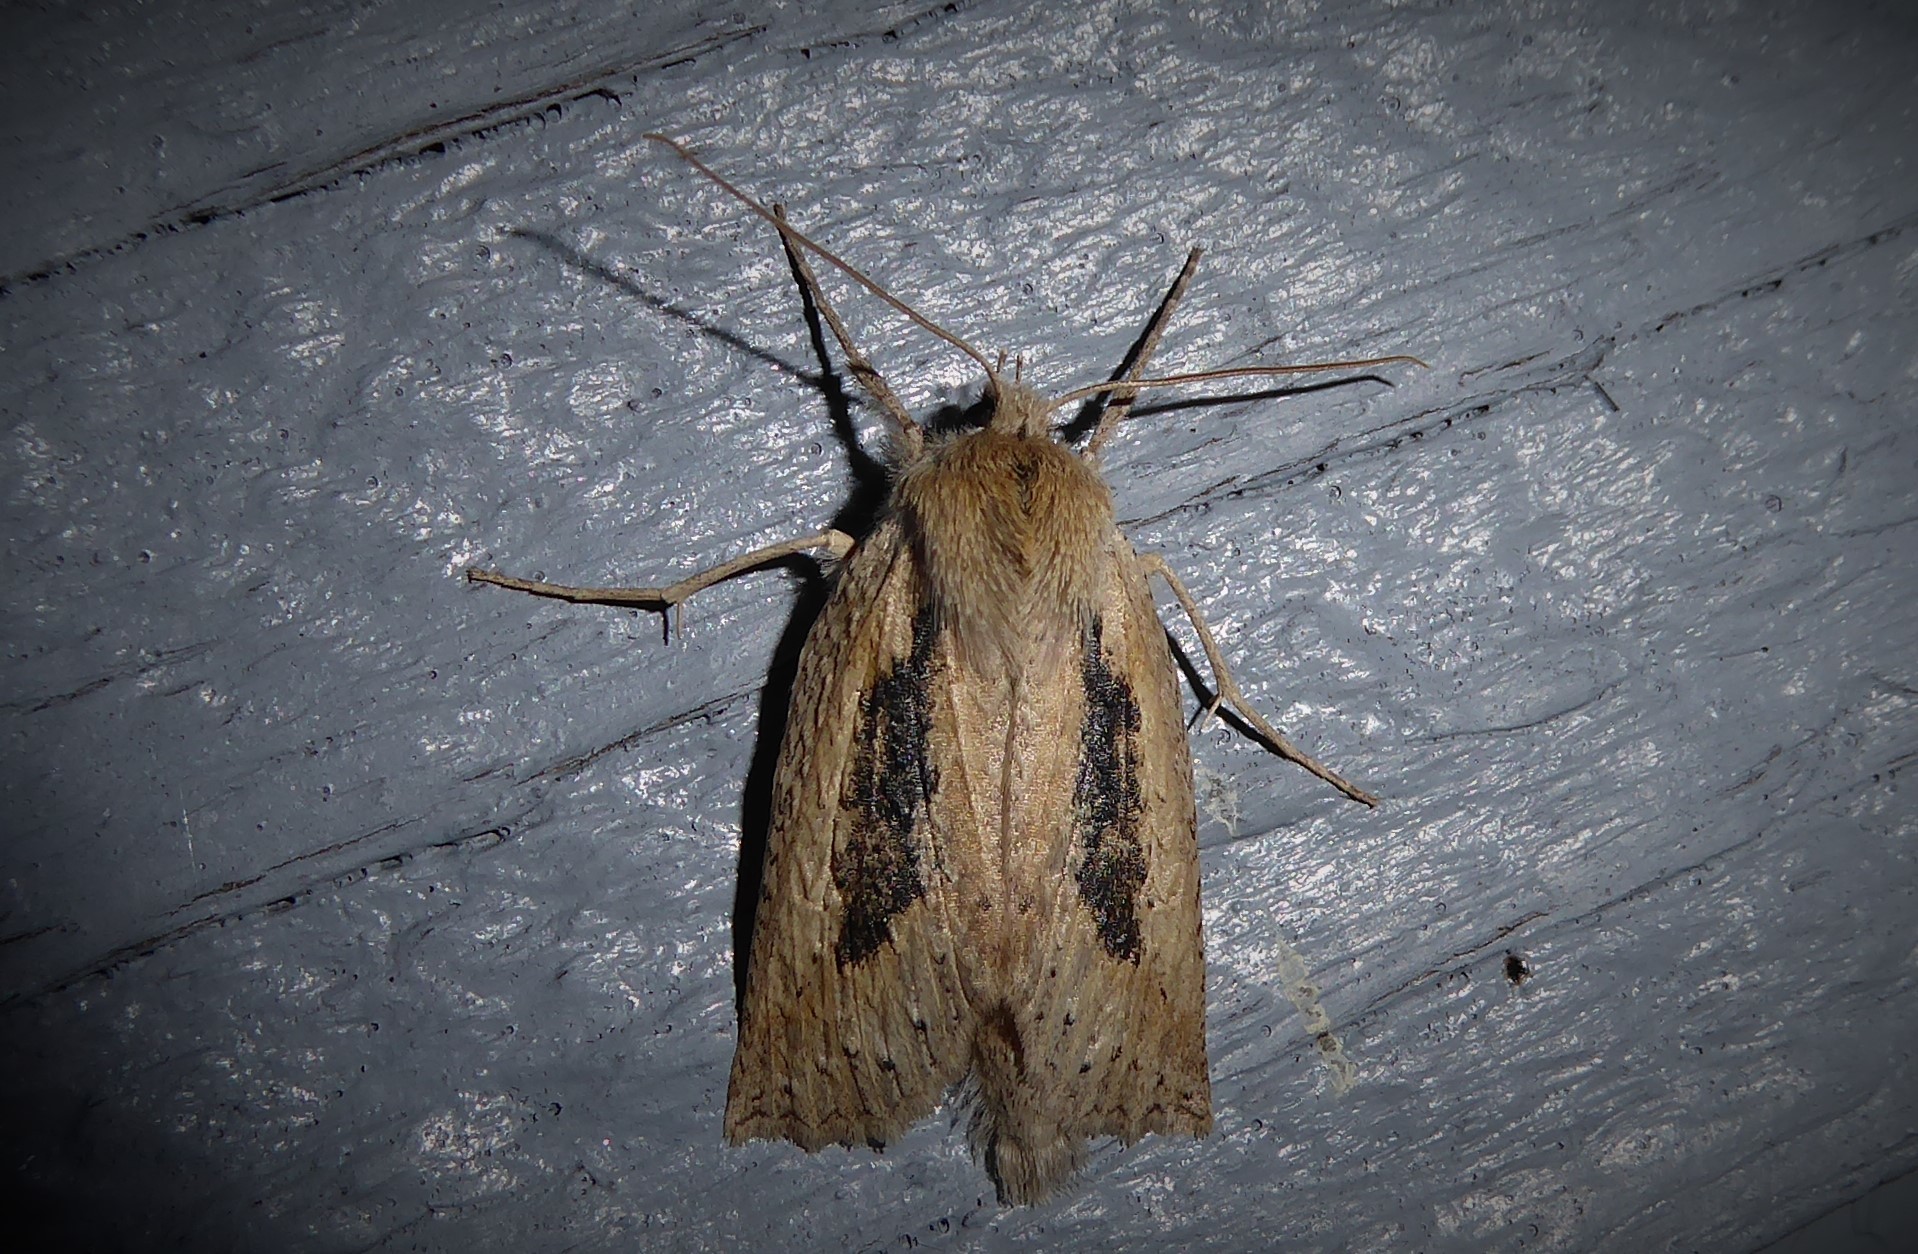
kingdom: Animalia
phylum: Arthropoda
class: Insecta
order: Lepidoptera
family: Geometridae
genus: Declana
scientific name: Declana leptomera
